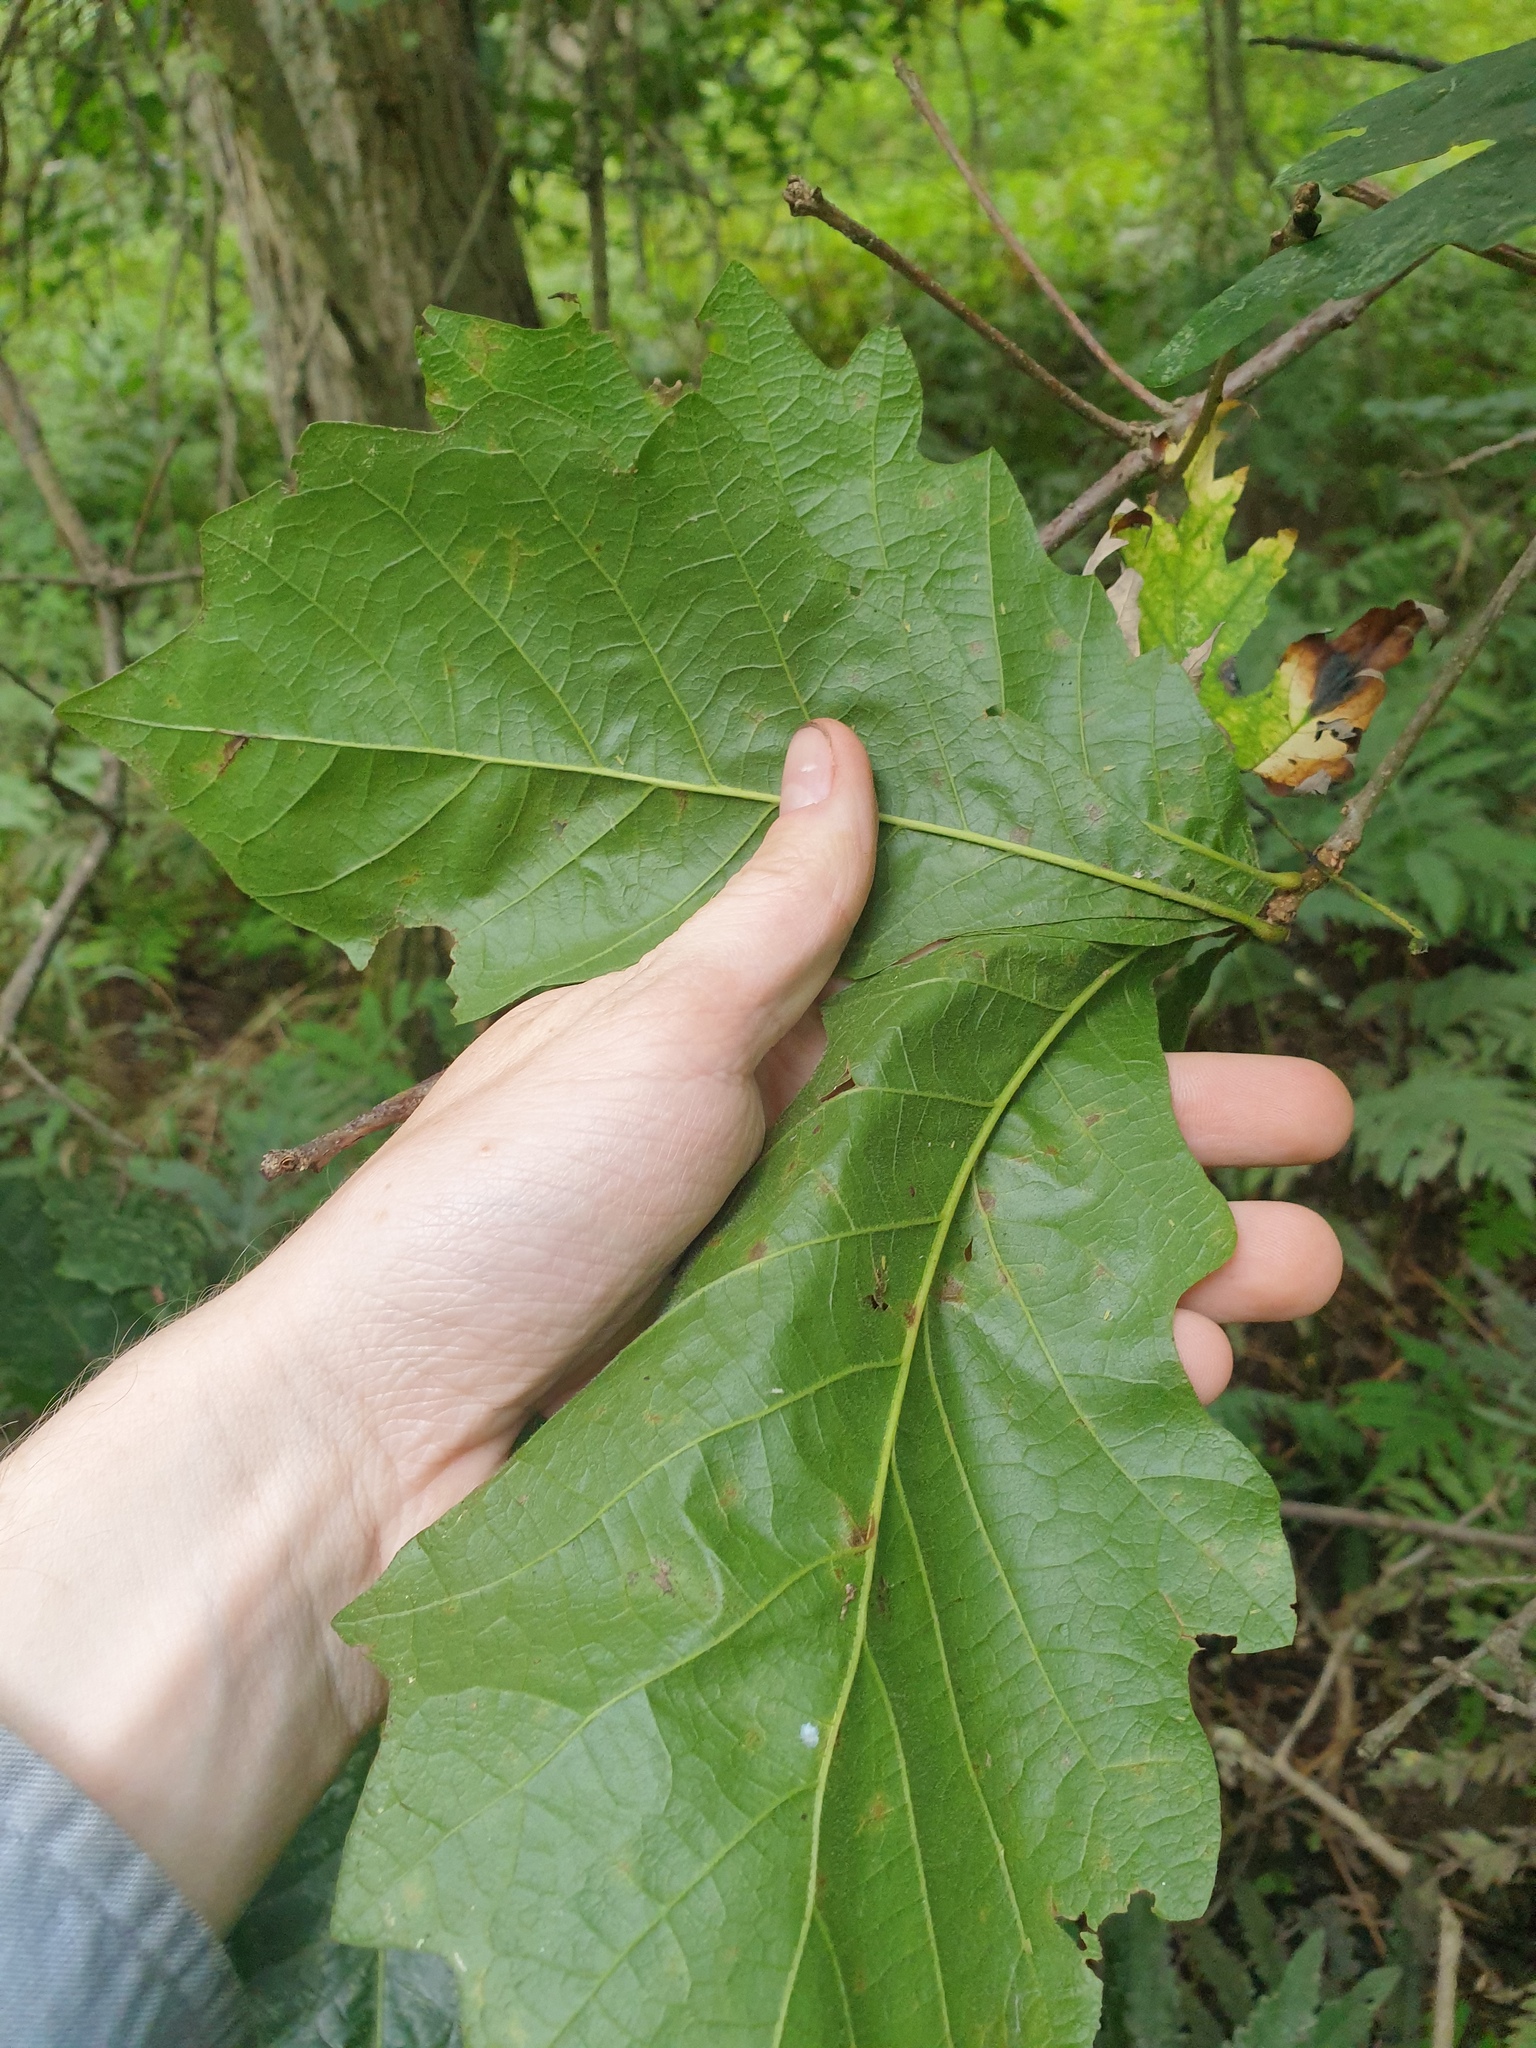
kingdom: Plantae
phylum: Tracheophyta
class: Magnoliopsida
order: Fagales
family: Fagaceae
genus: Quercus
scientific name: Quercus bicolor
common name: Swamp white oak
